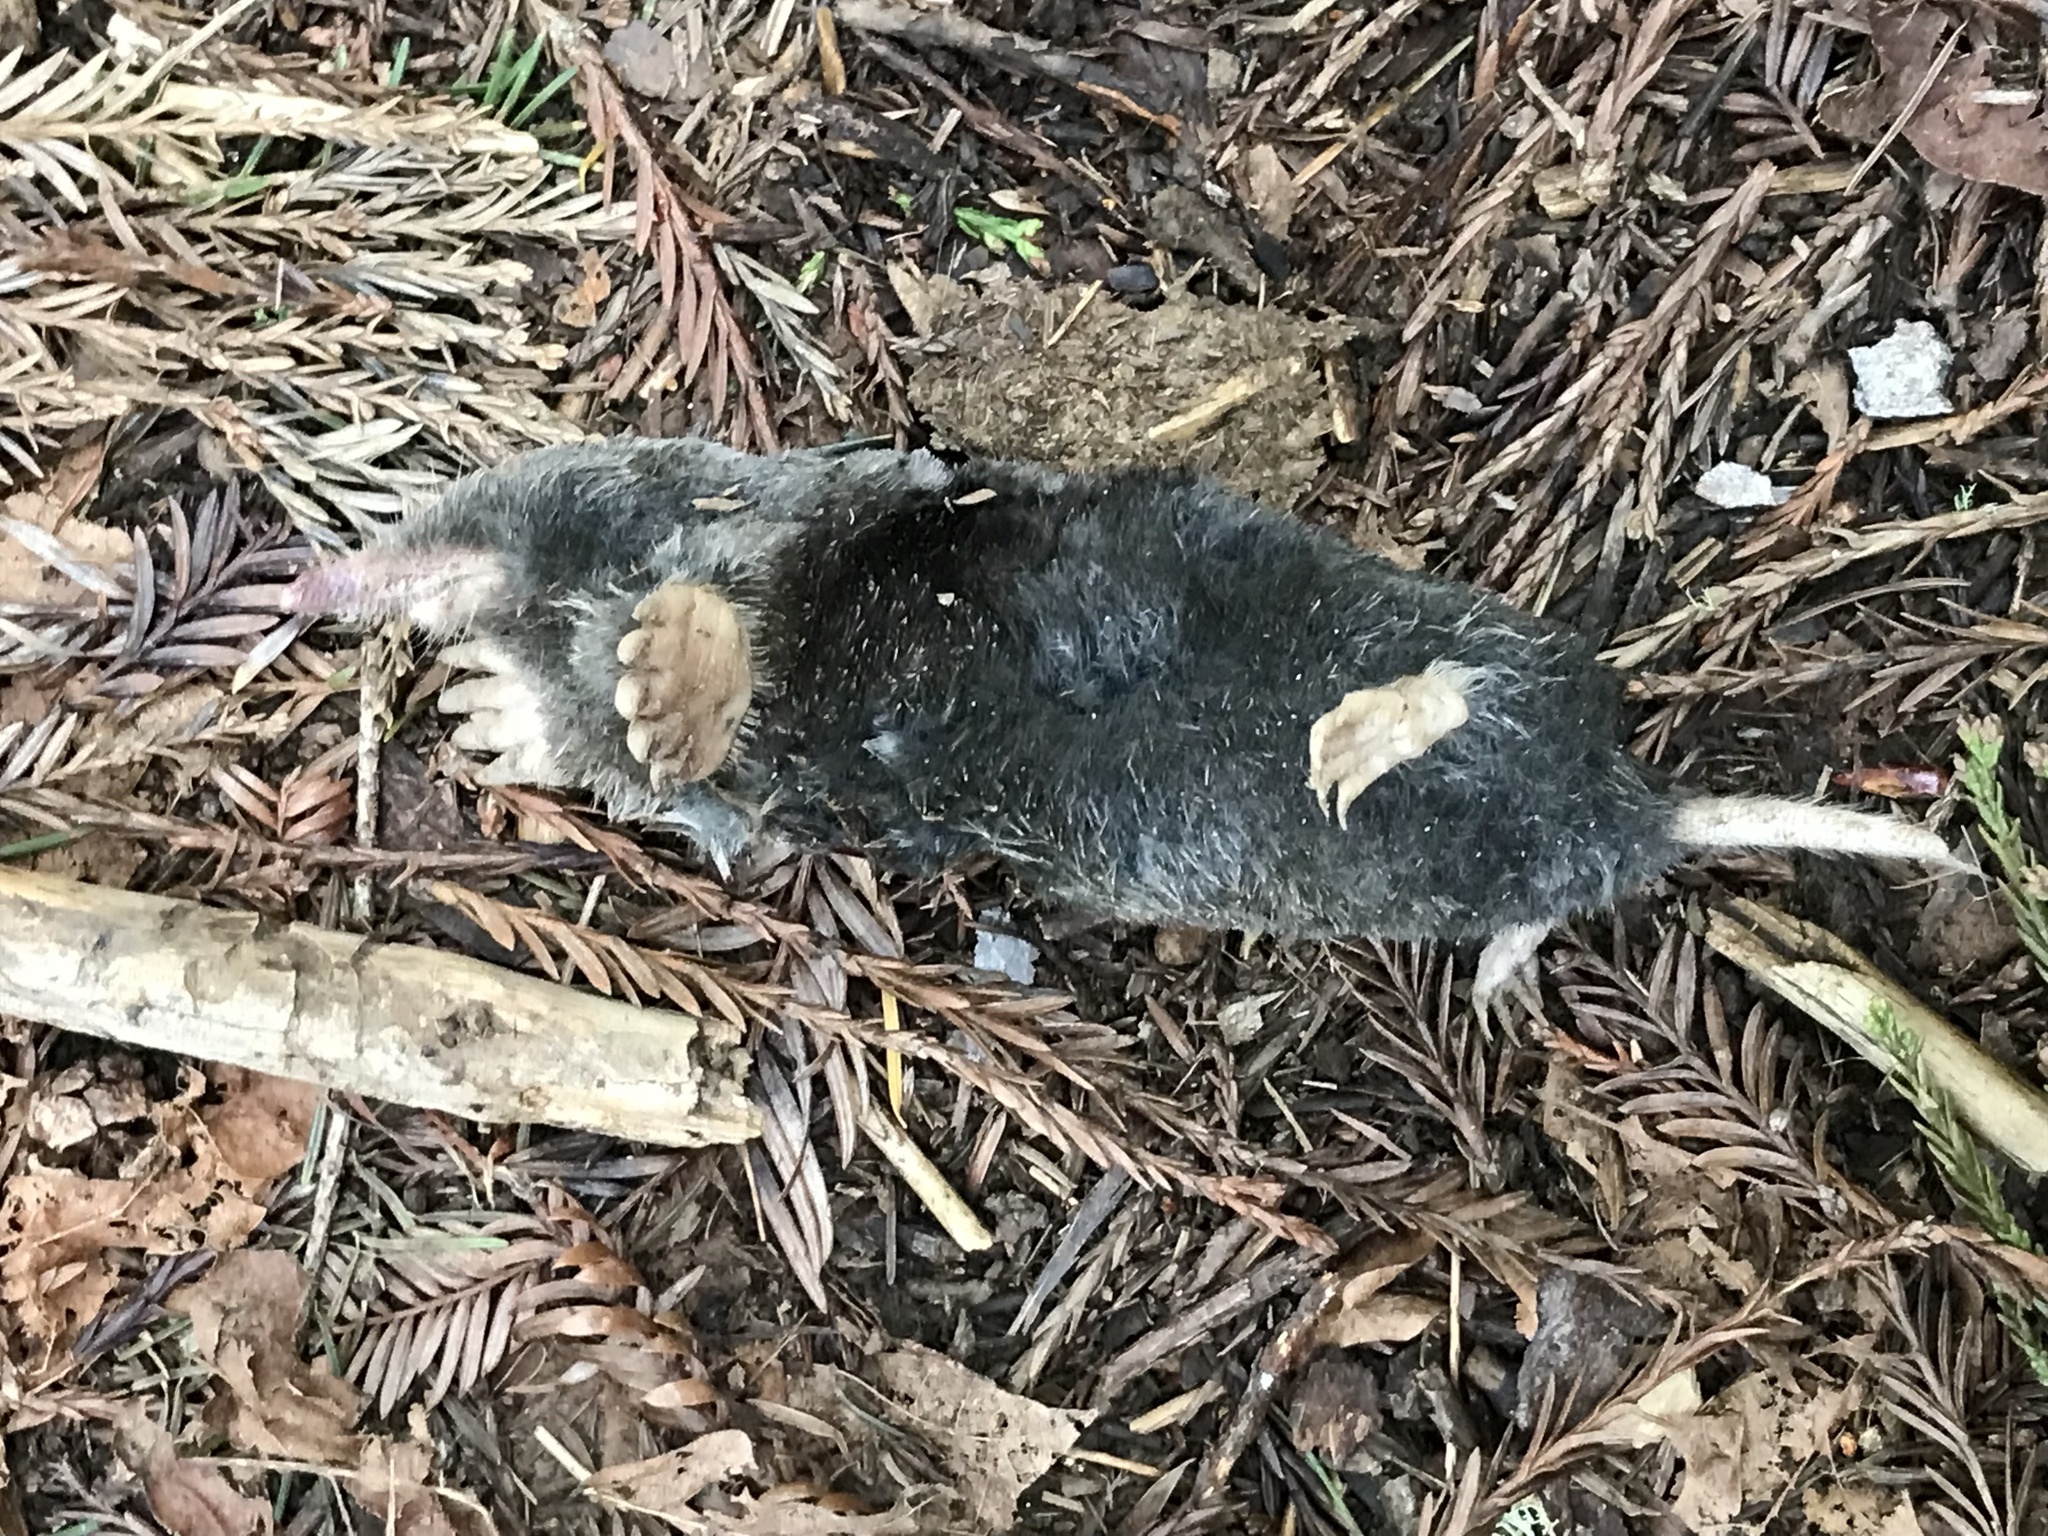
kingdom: Animalia
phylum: Chordata
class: Mammalia
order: Soricomorpha
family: Talpidae
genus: Scapanus
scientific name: Scapanus latimanus
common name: Broad-footed mole
